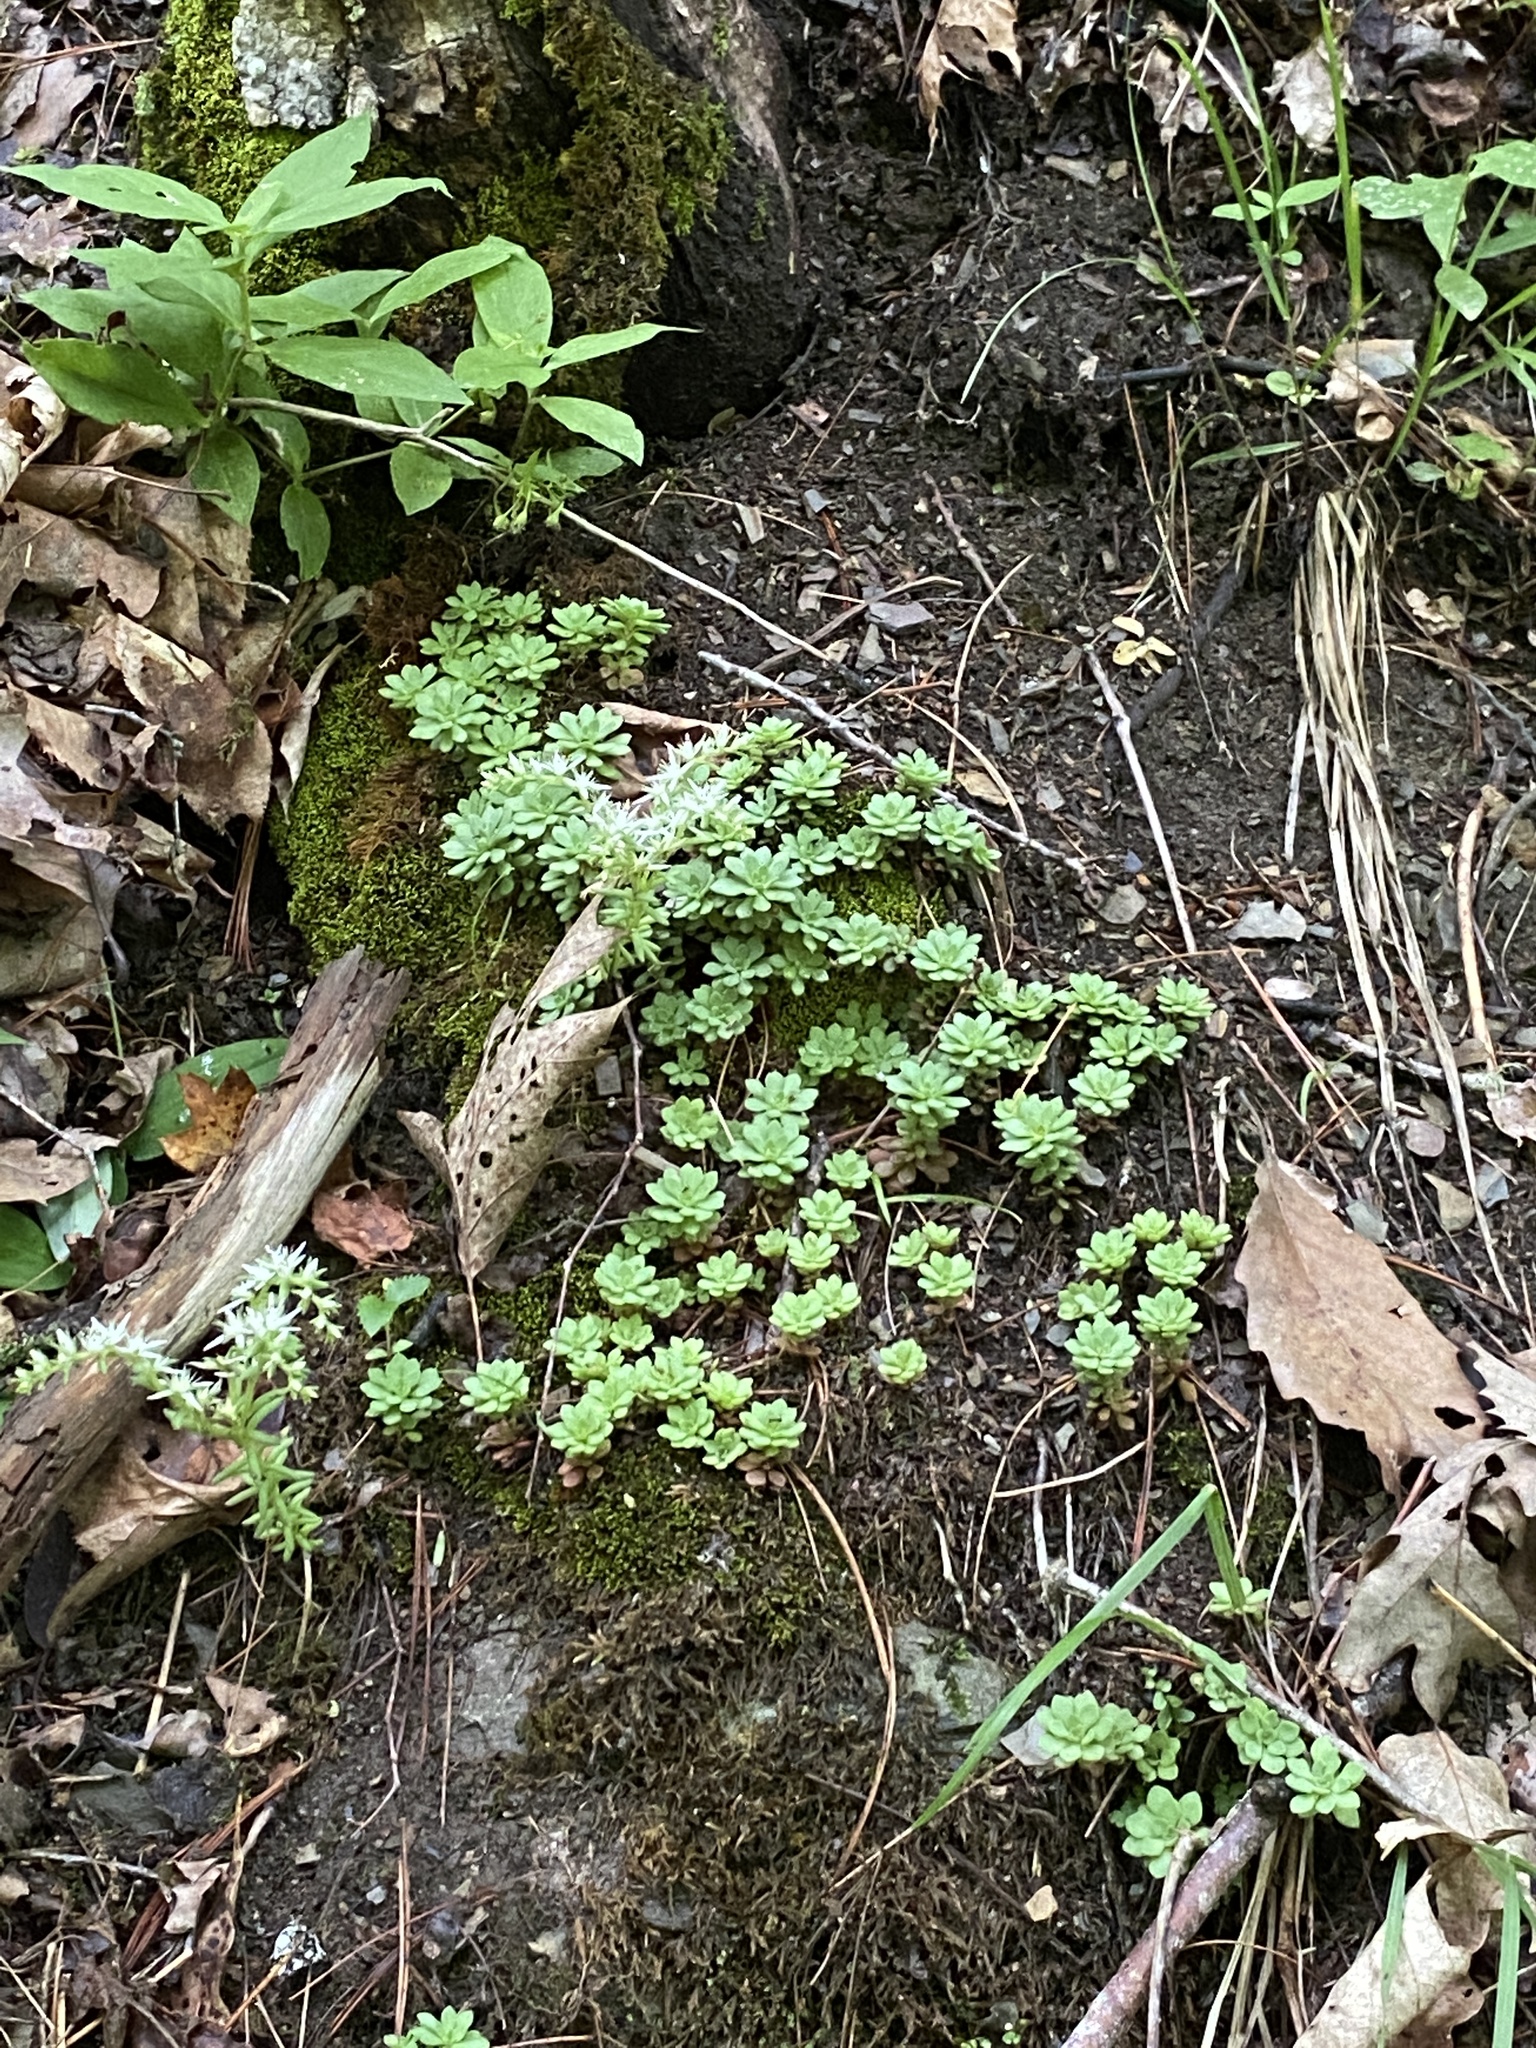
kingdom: Plantae
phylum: Tracheophyta
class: Magnoliopsida
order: Saxifragales
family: Crassulaceae
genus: Sedum
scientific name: Sedum glaucophyllum
